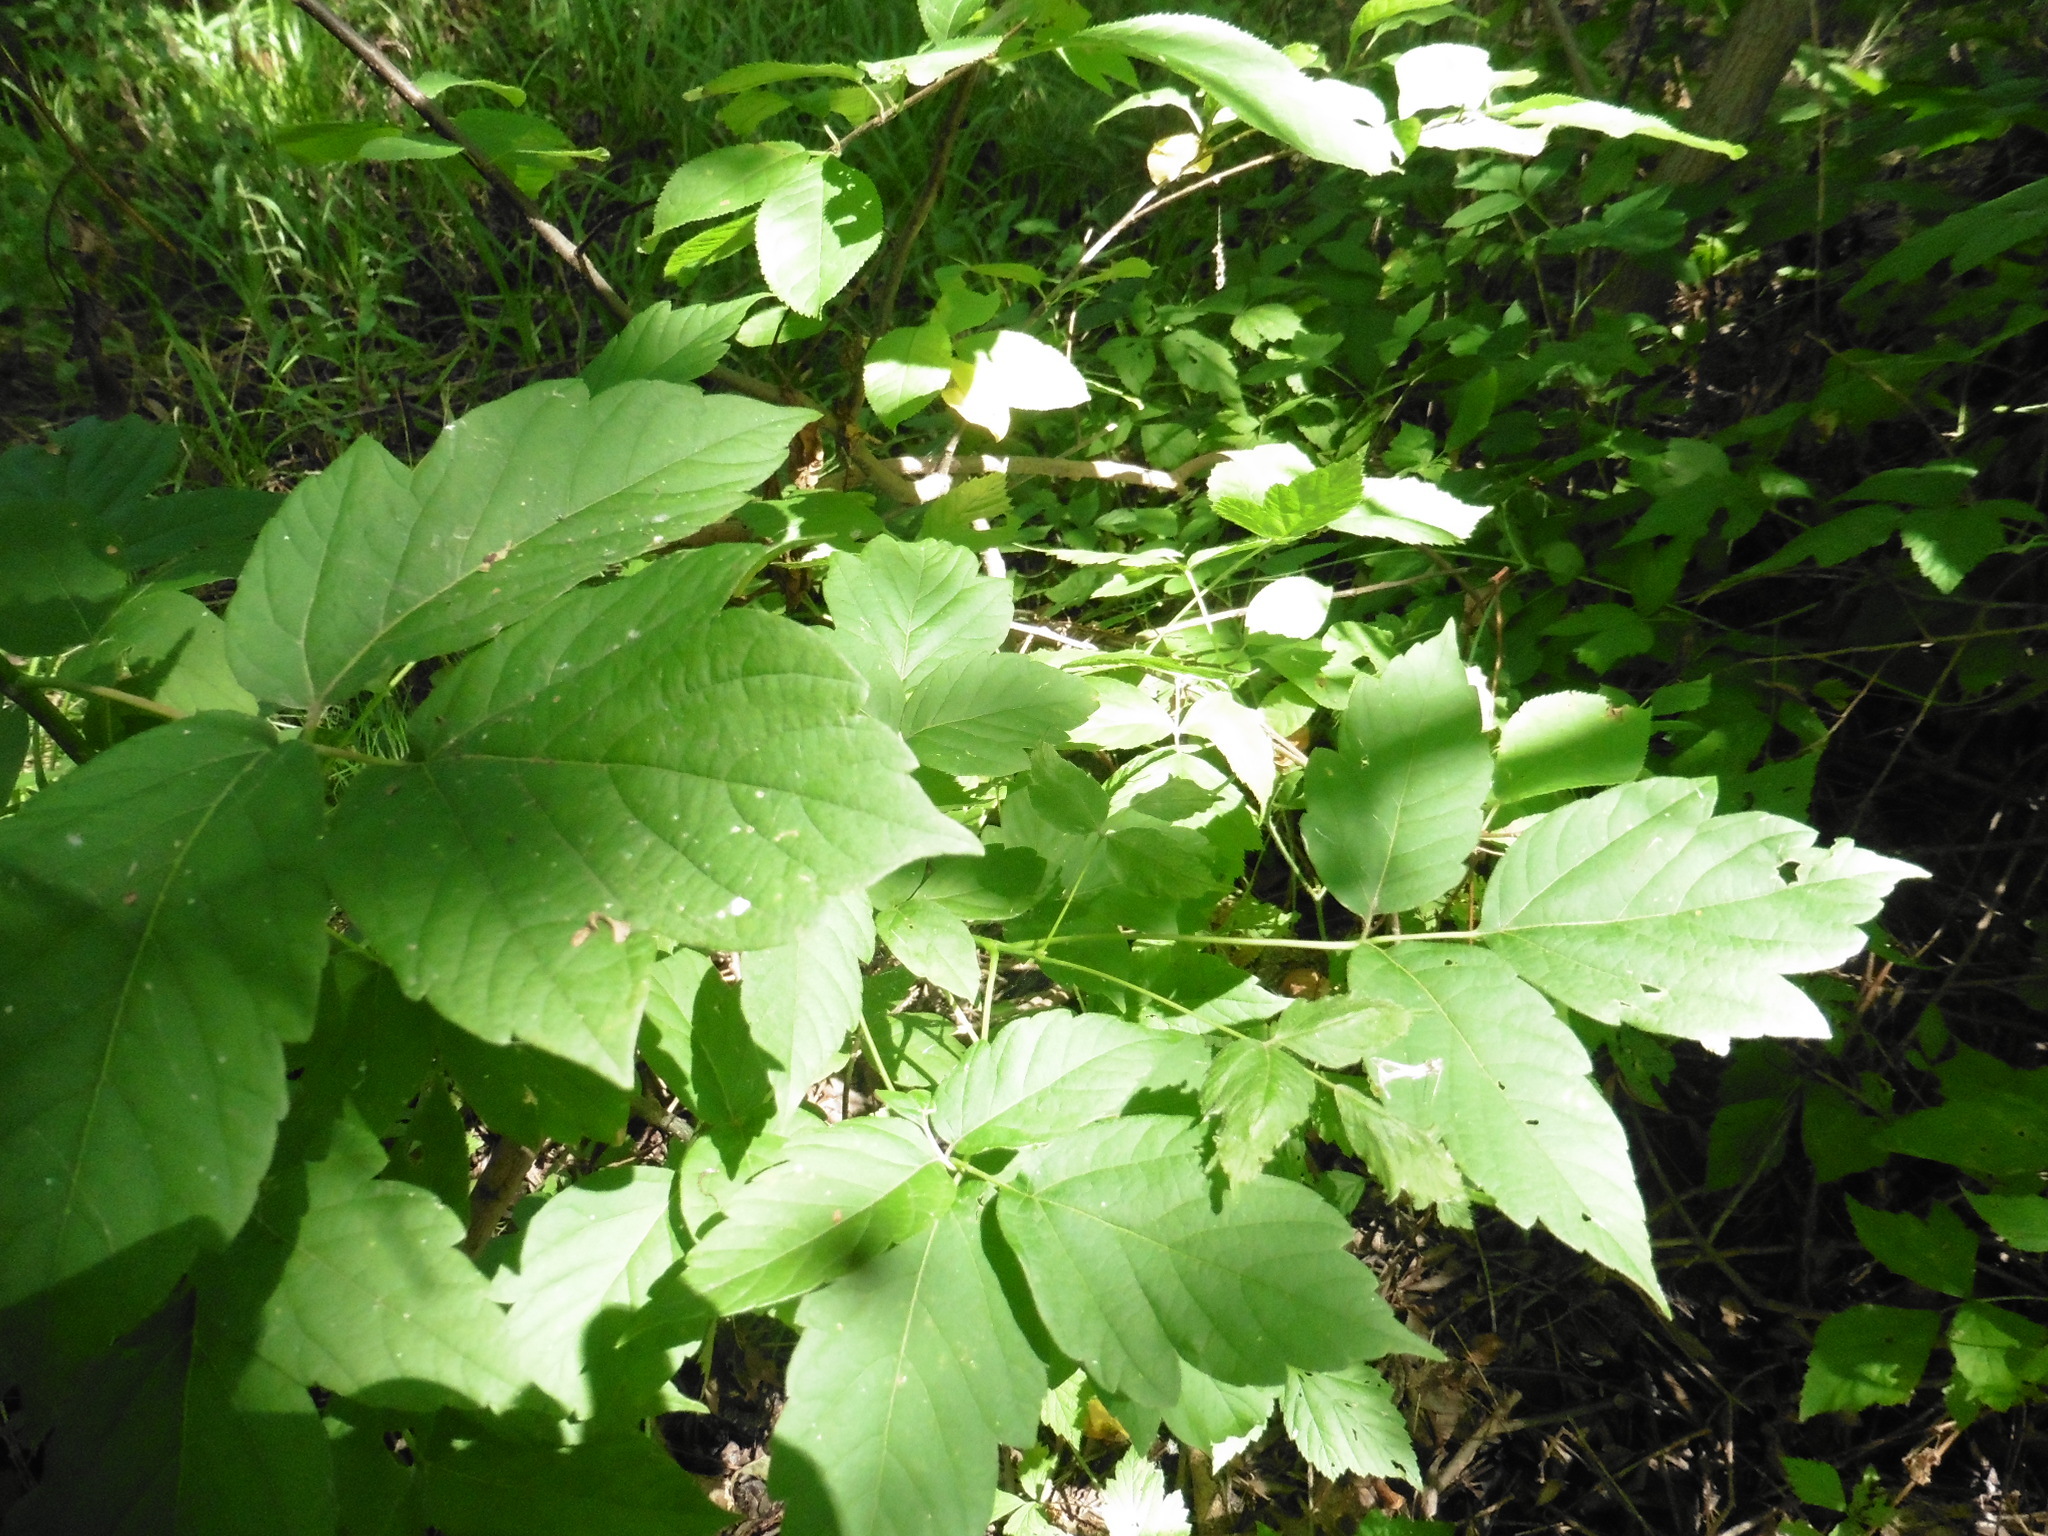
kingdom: Plantae
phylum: Tracheophyta
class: Magnoliopsida
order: Sapindales
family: Sapindaceae
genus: Acer
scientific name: Acer negundo
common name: Ashleaf maple
